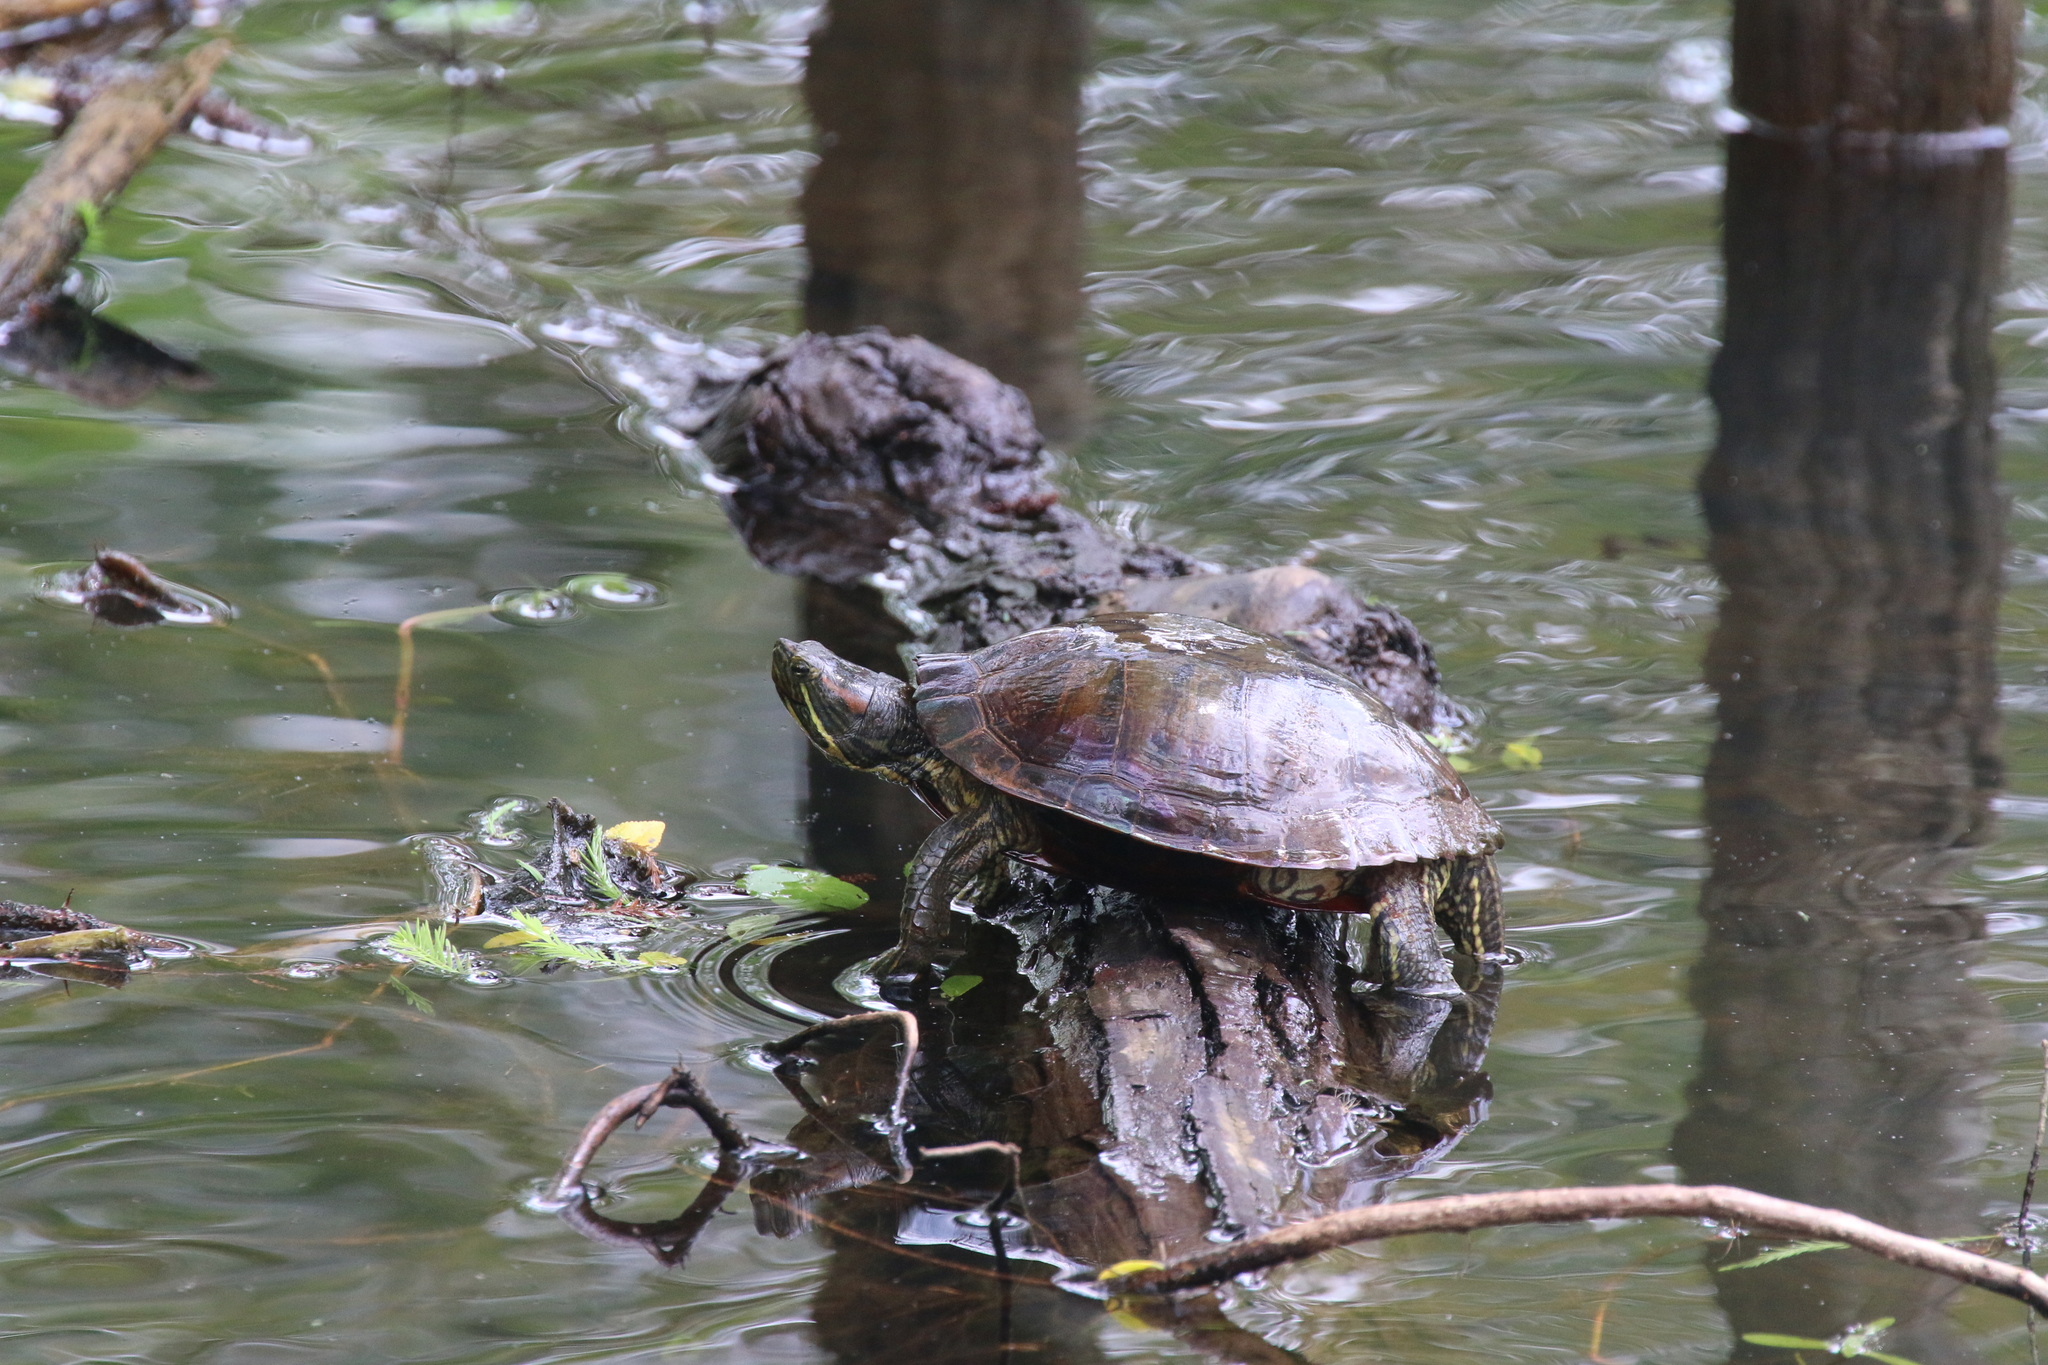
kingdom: Animalia
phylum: Chordata
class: Testudines
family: Emydidae
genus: Trachemys
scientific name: Trachemys scripta
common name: Slider
